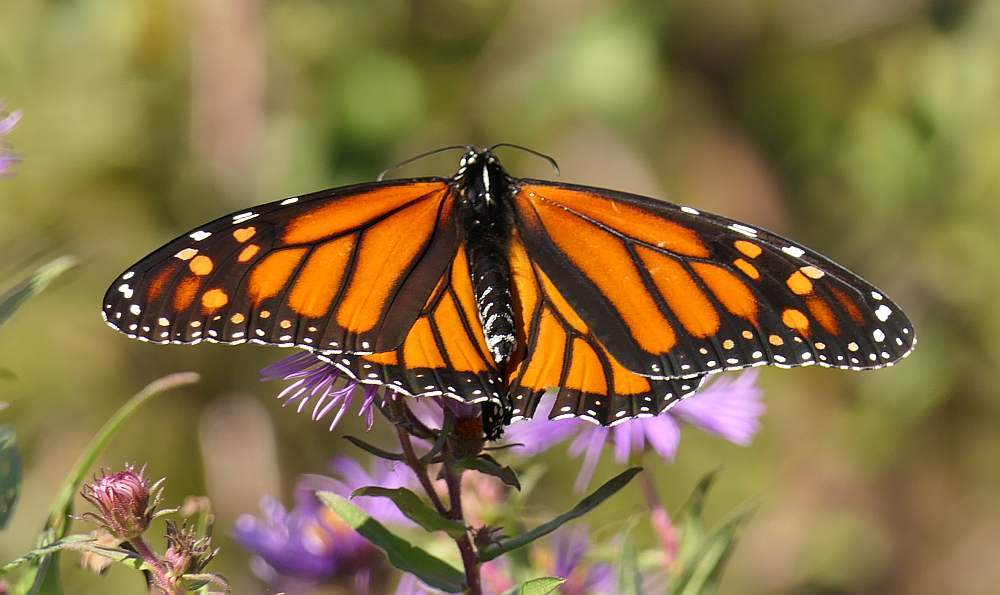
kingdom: Animalia
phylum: Arthropoda
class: Insecta
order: Lepidoptera
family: Nymphalidae
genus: Danaus
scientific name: Danaus plexippus
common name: Monarch
